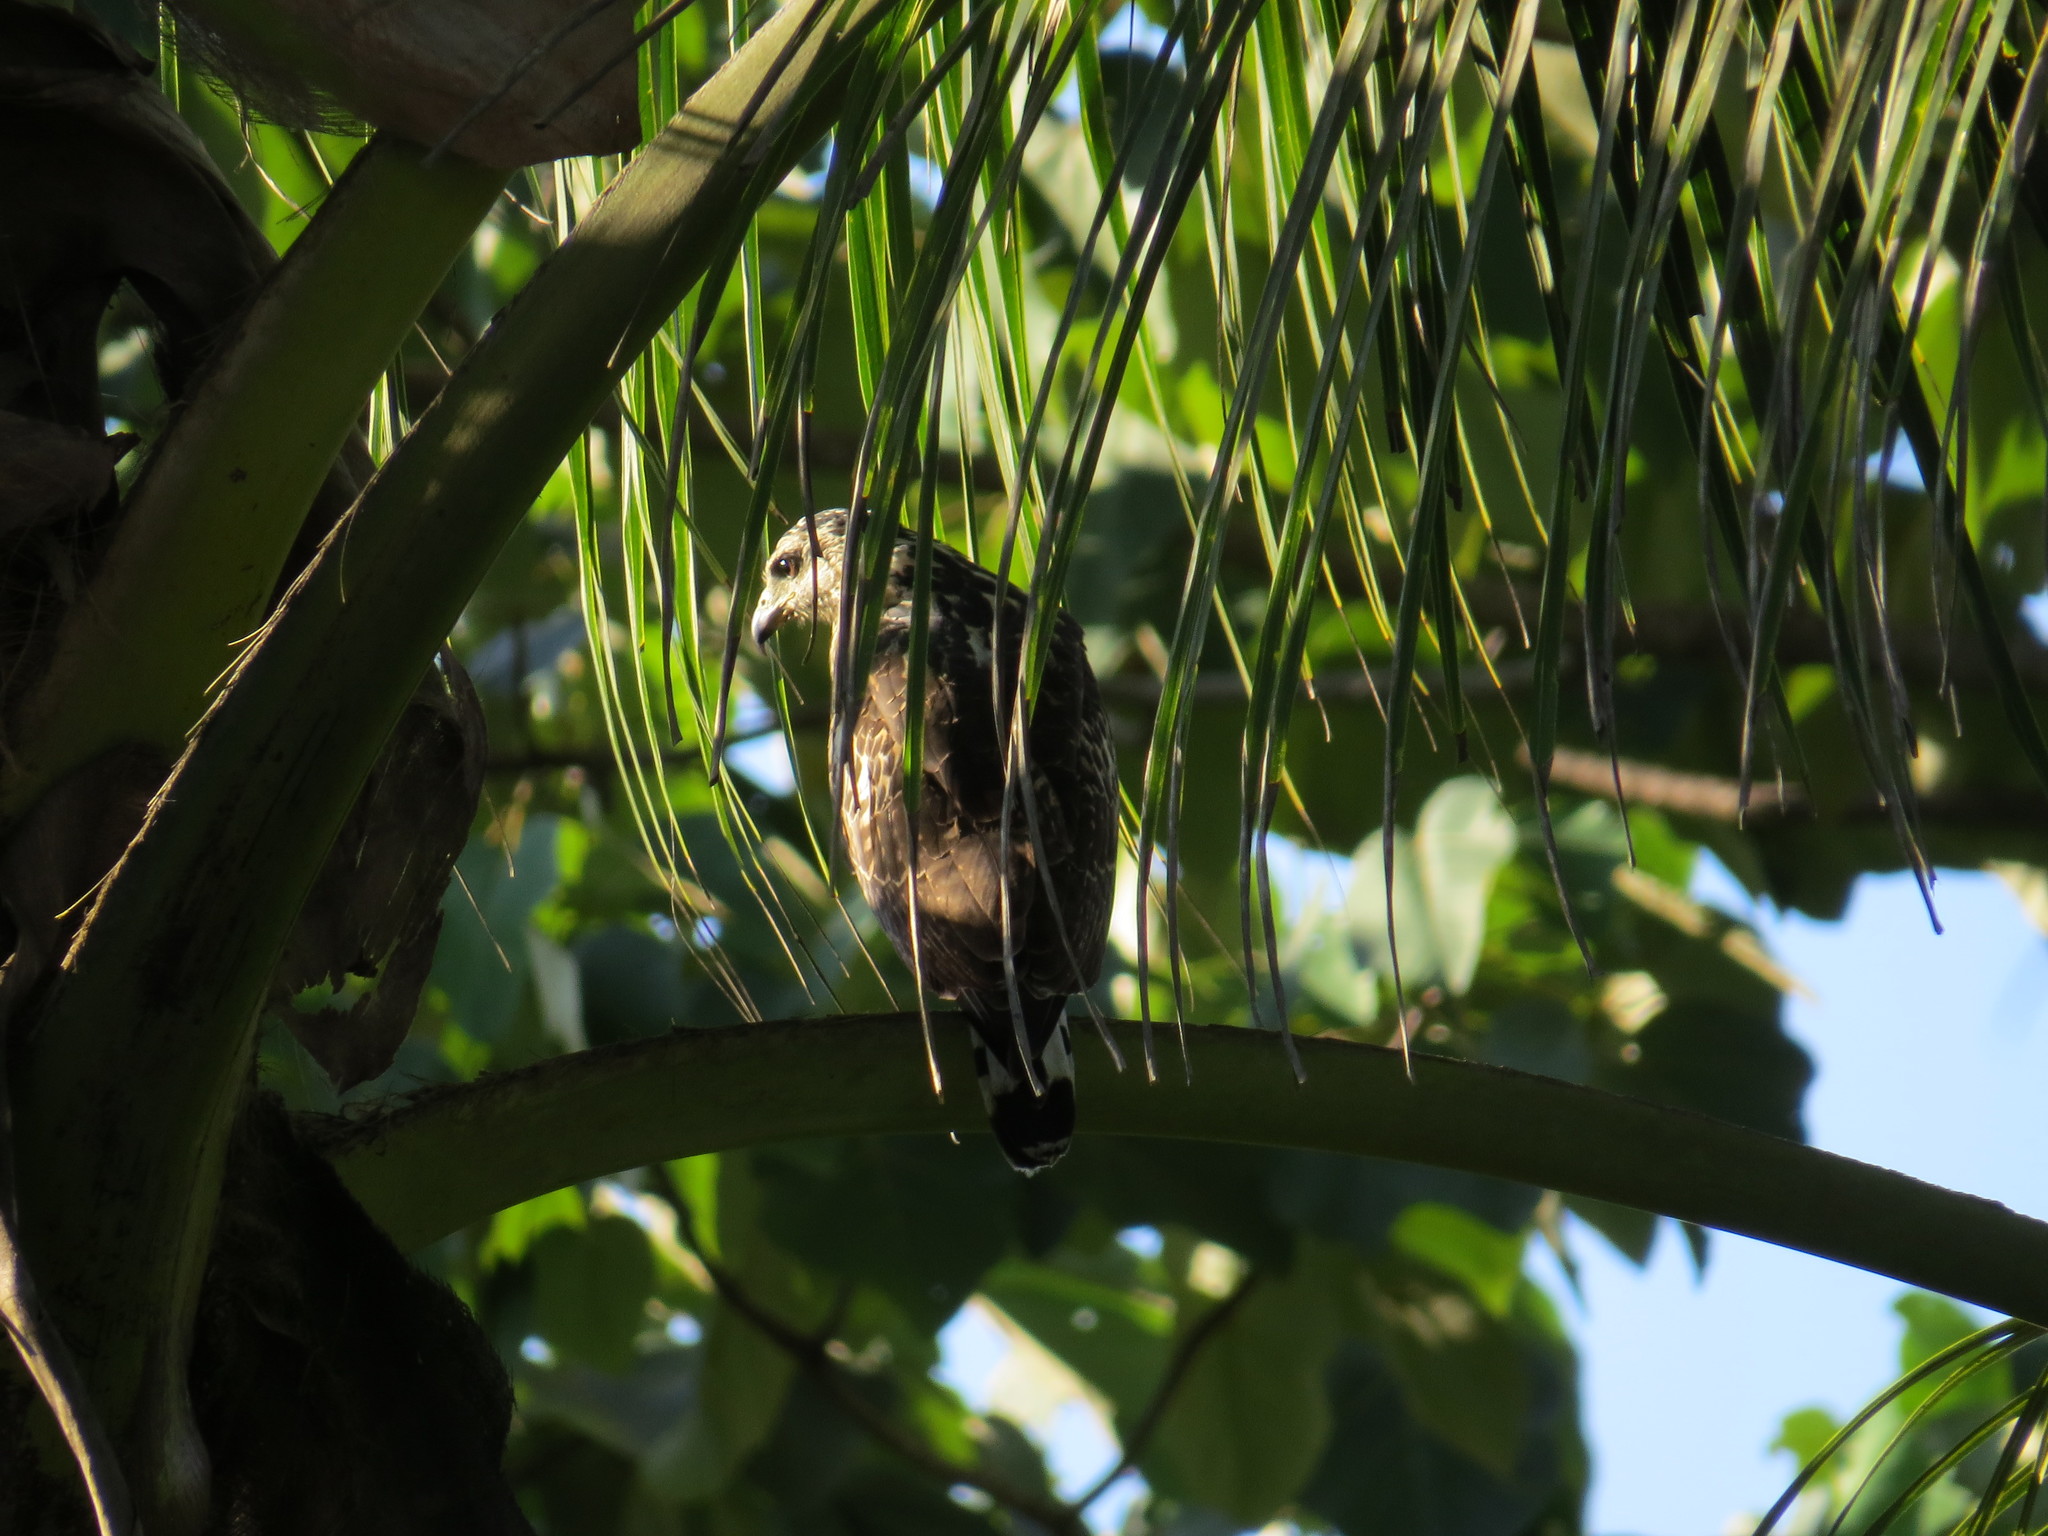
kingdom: Animalia
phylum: Chordata
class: Aves
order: Accipitriformes
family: Accipitridae
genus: Buteogallus
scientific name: Buteogallus anthracinus
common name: Common black hawk
